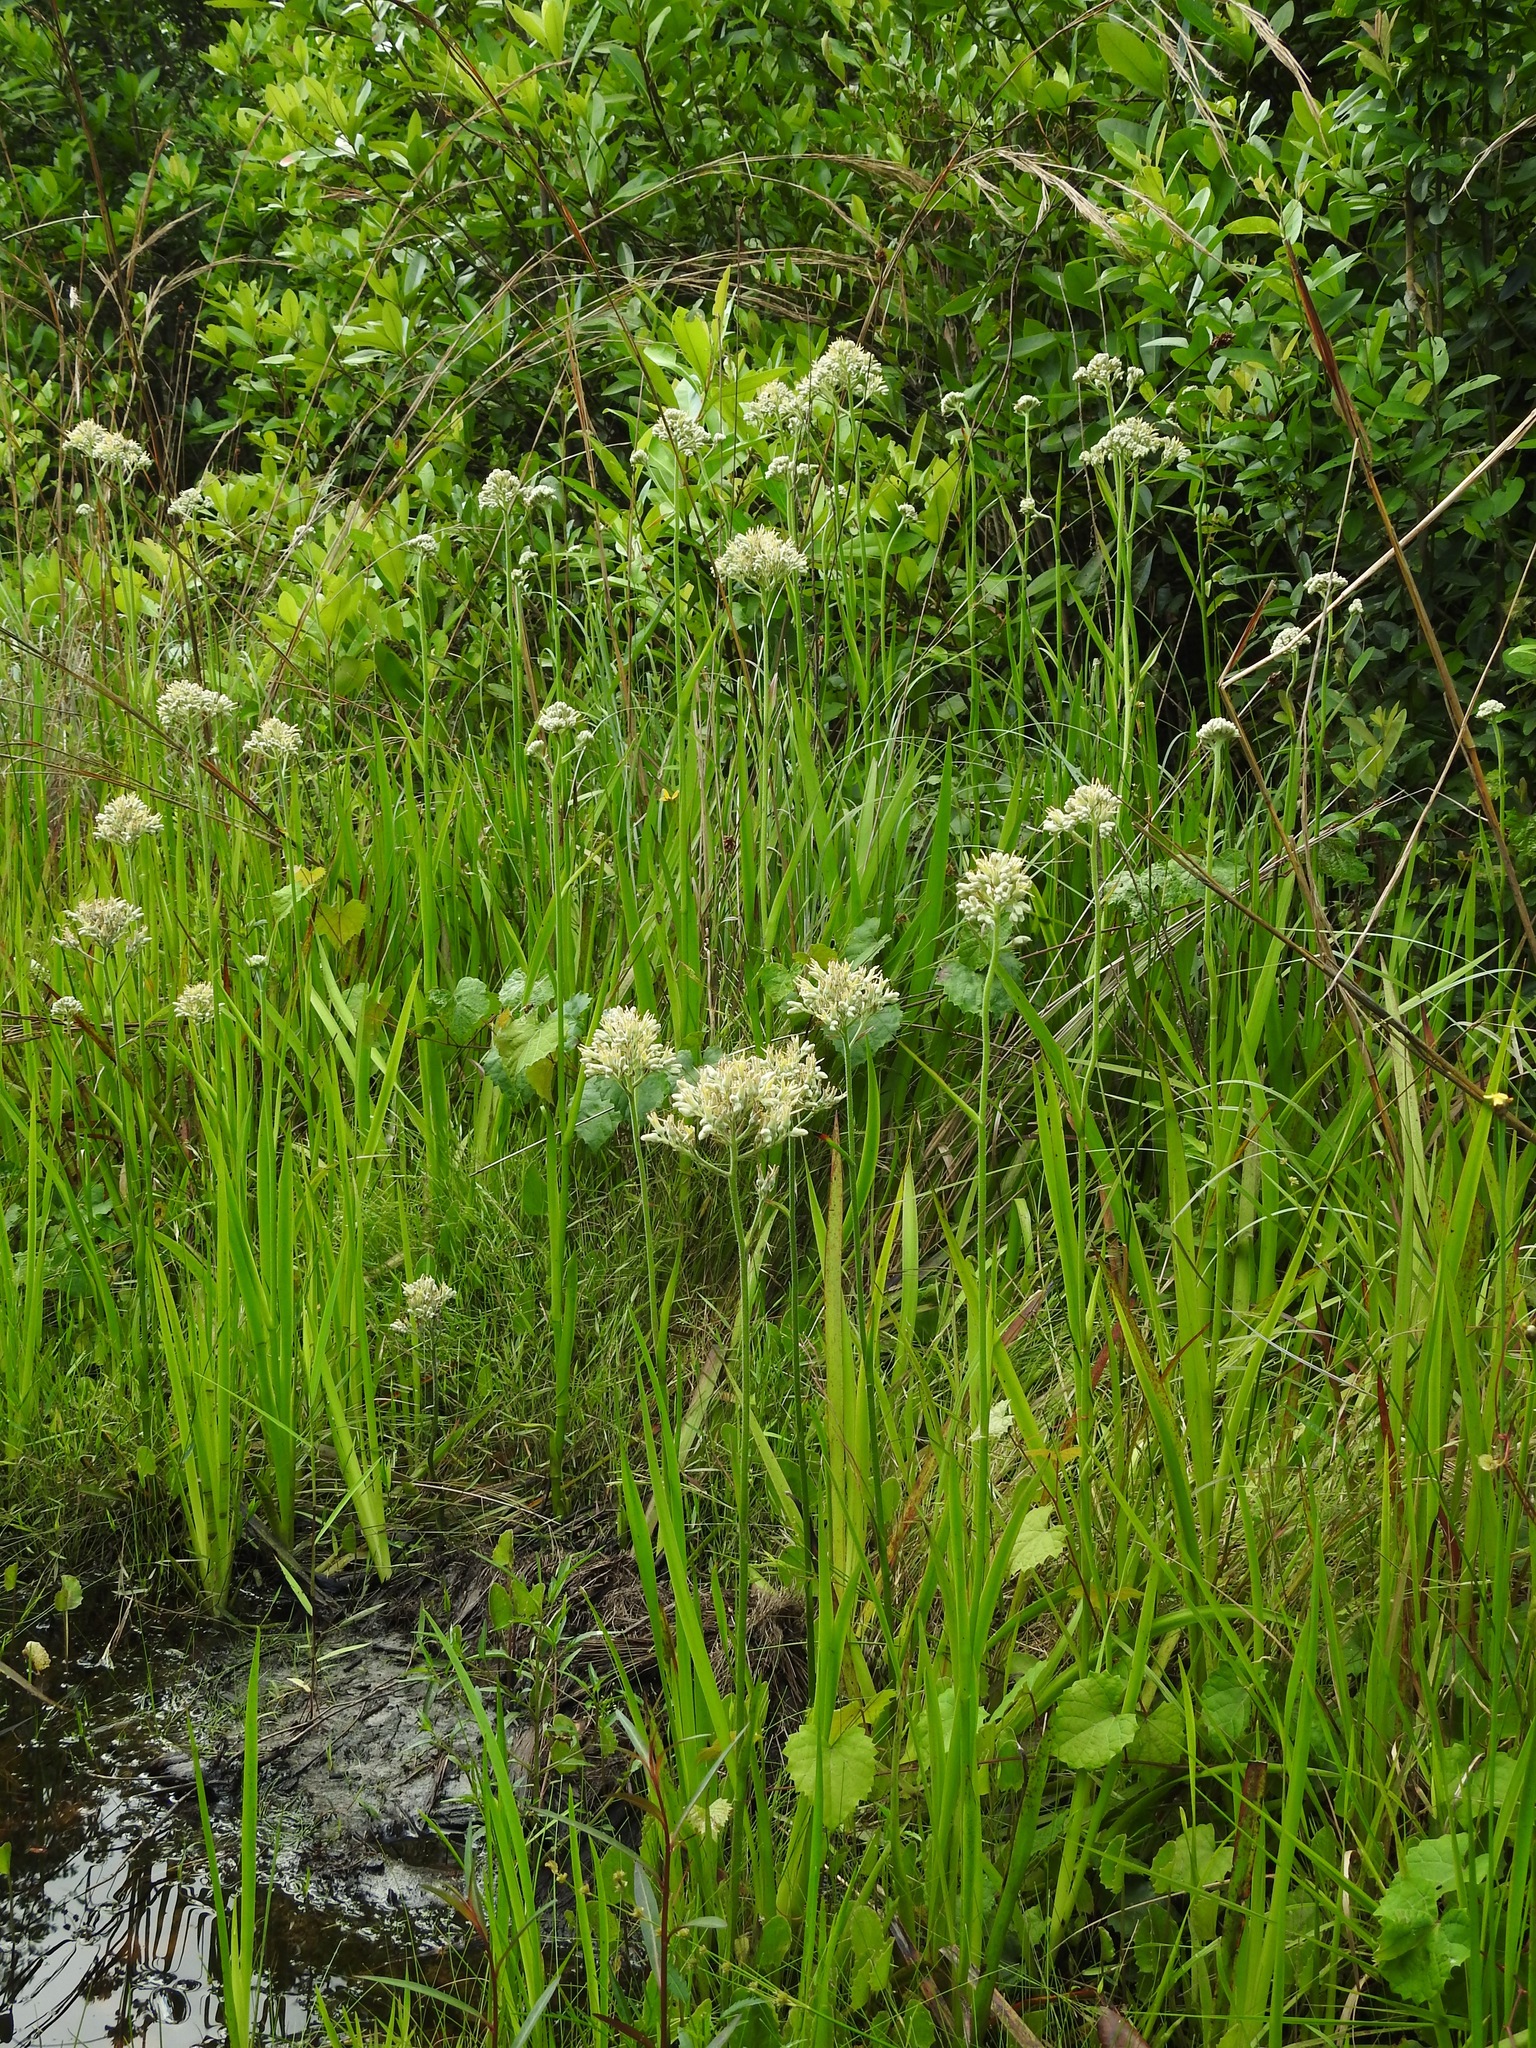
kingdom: Plantae
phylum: Tracheophyta
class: Liliopsida
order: Commelinales
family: Haemodoraceae
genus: Lachnanthes
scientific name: Lachnanthes caroliana
